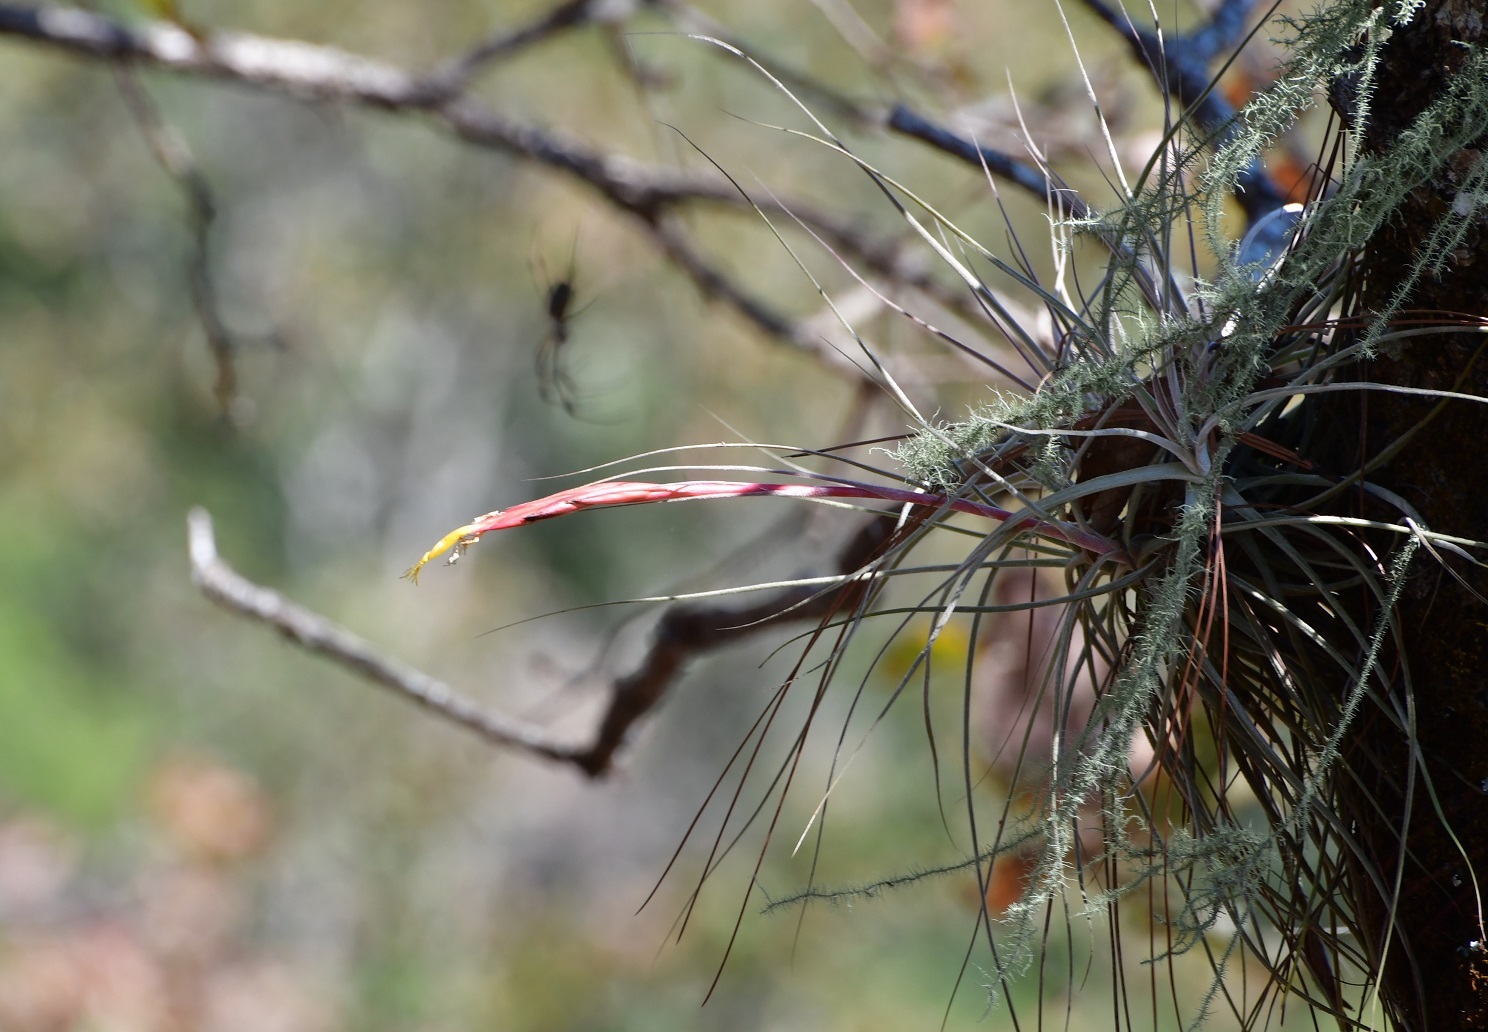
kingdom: Plantae
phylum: Tracheophyta
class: Liliopsida
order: Poales
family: Bromeliaceae
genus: Tillandsia
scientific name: Tillandsia schiedeana
